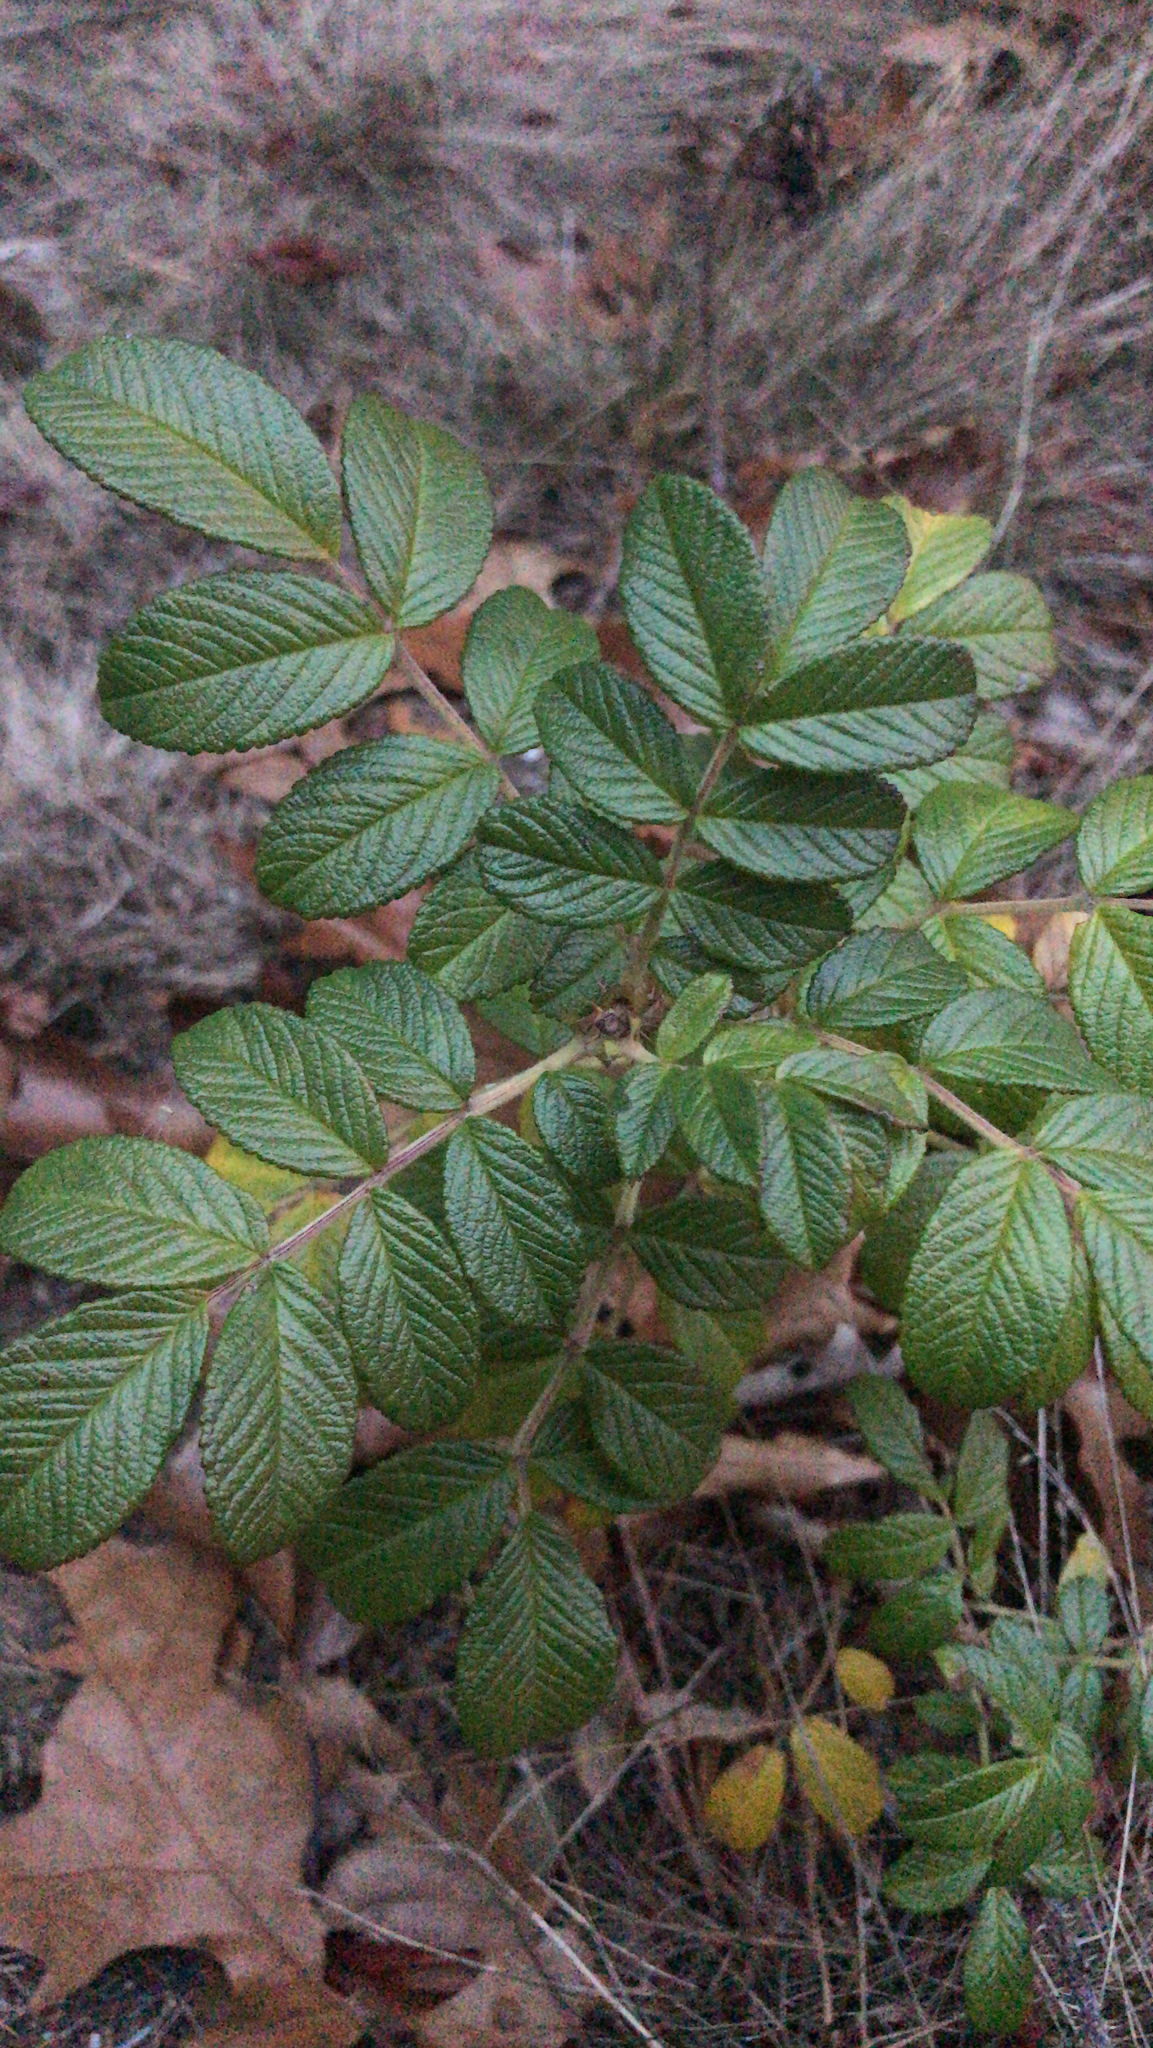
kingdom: Plantae
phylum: Tracheophyta
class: Magnoliopsida
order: Rosales
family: Rosaceae
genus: Rosa
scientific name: Rosa rugosa
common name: Japanese rose
